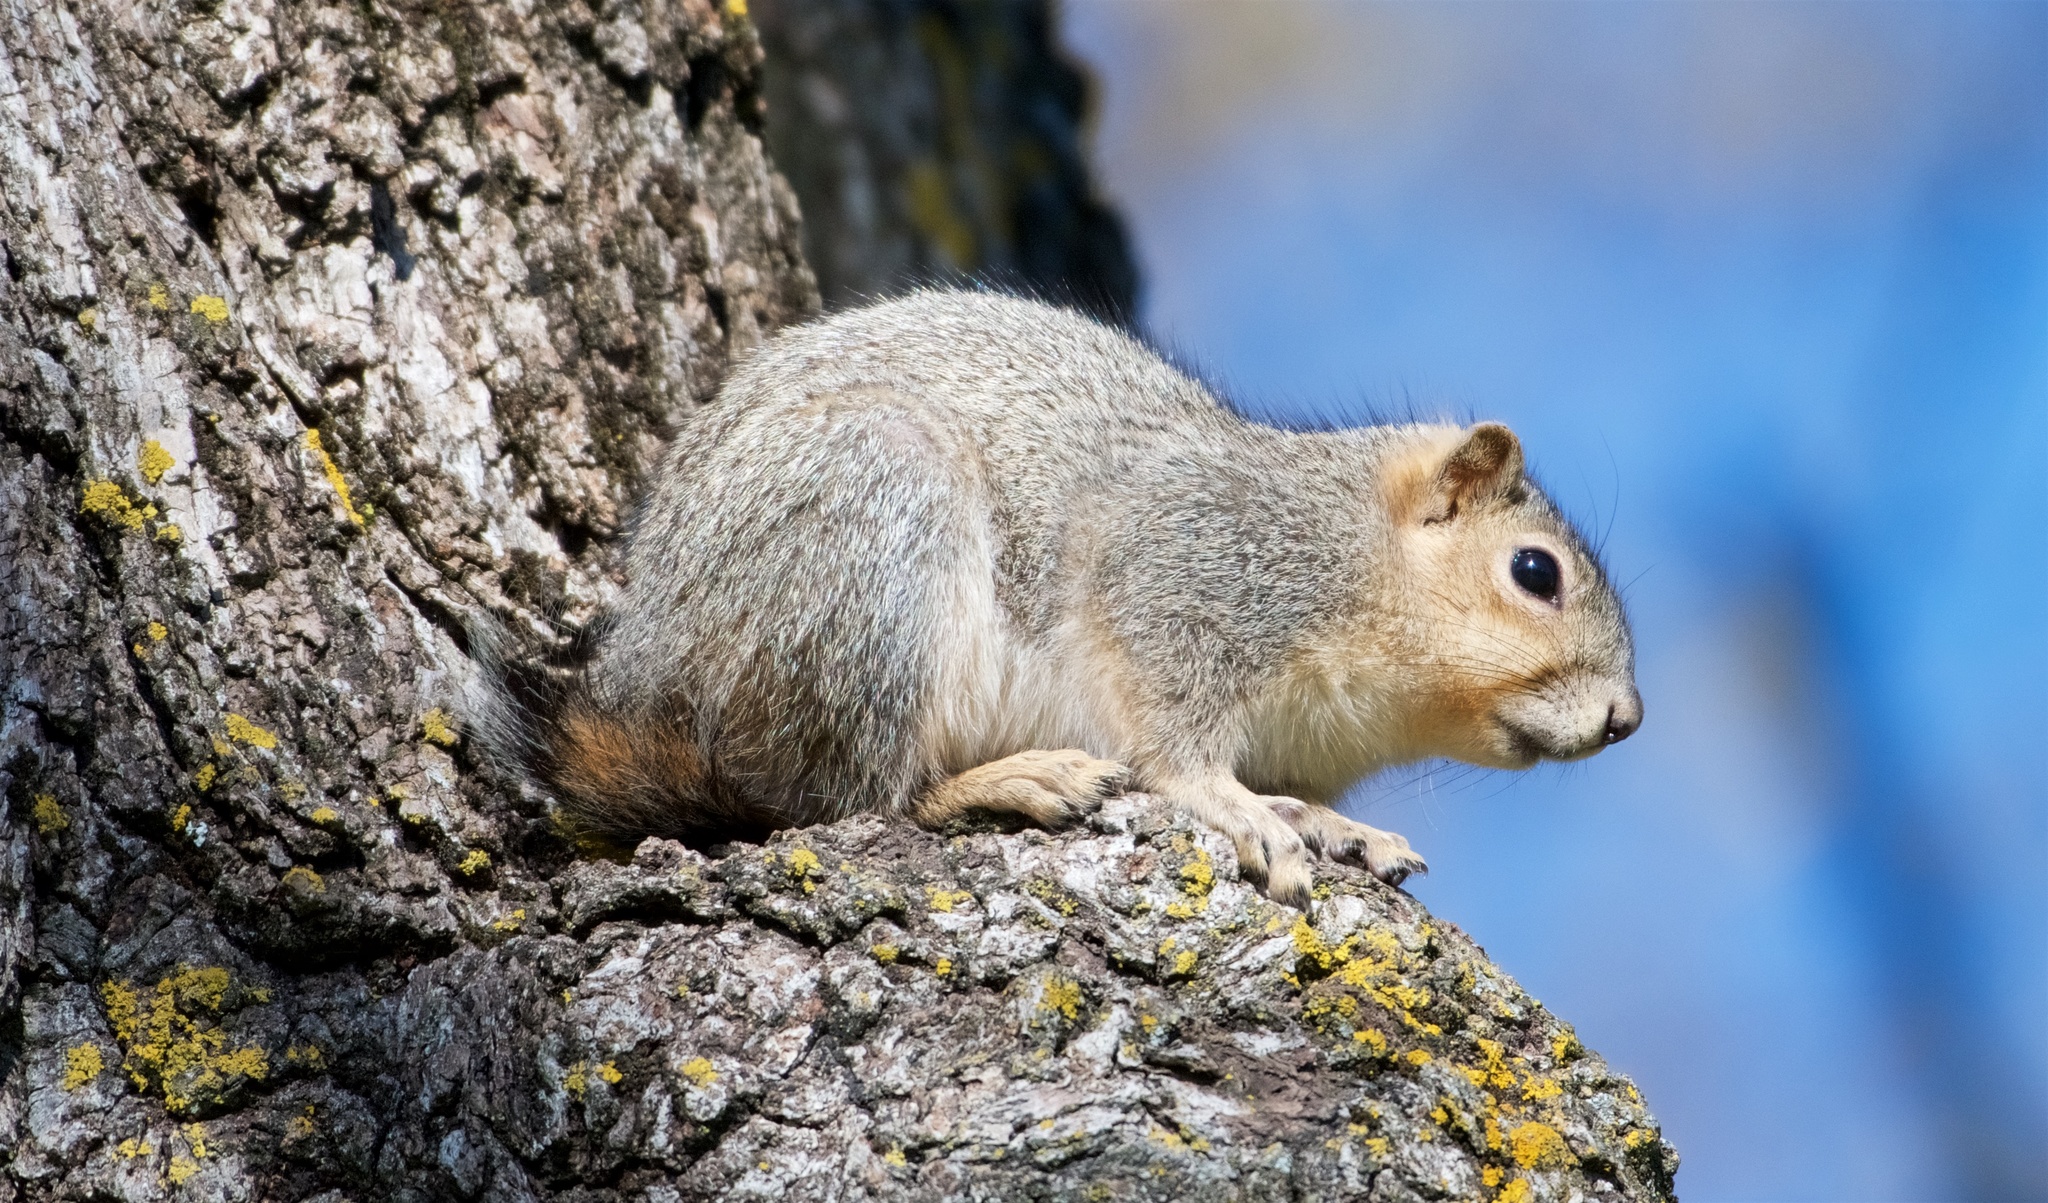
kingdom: Animalia
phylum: Chordata
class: Mammalia
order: Rodentia
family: Sciuridae
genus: Sciurus
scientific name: Sciurus niger
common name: Fox squirrel
